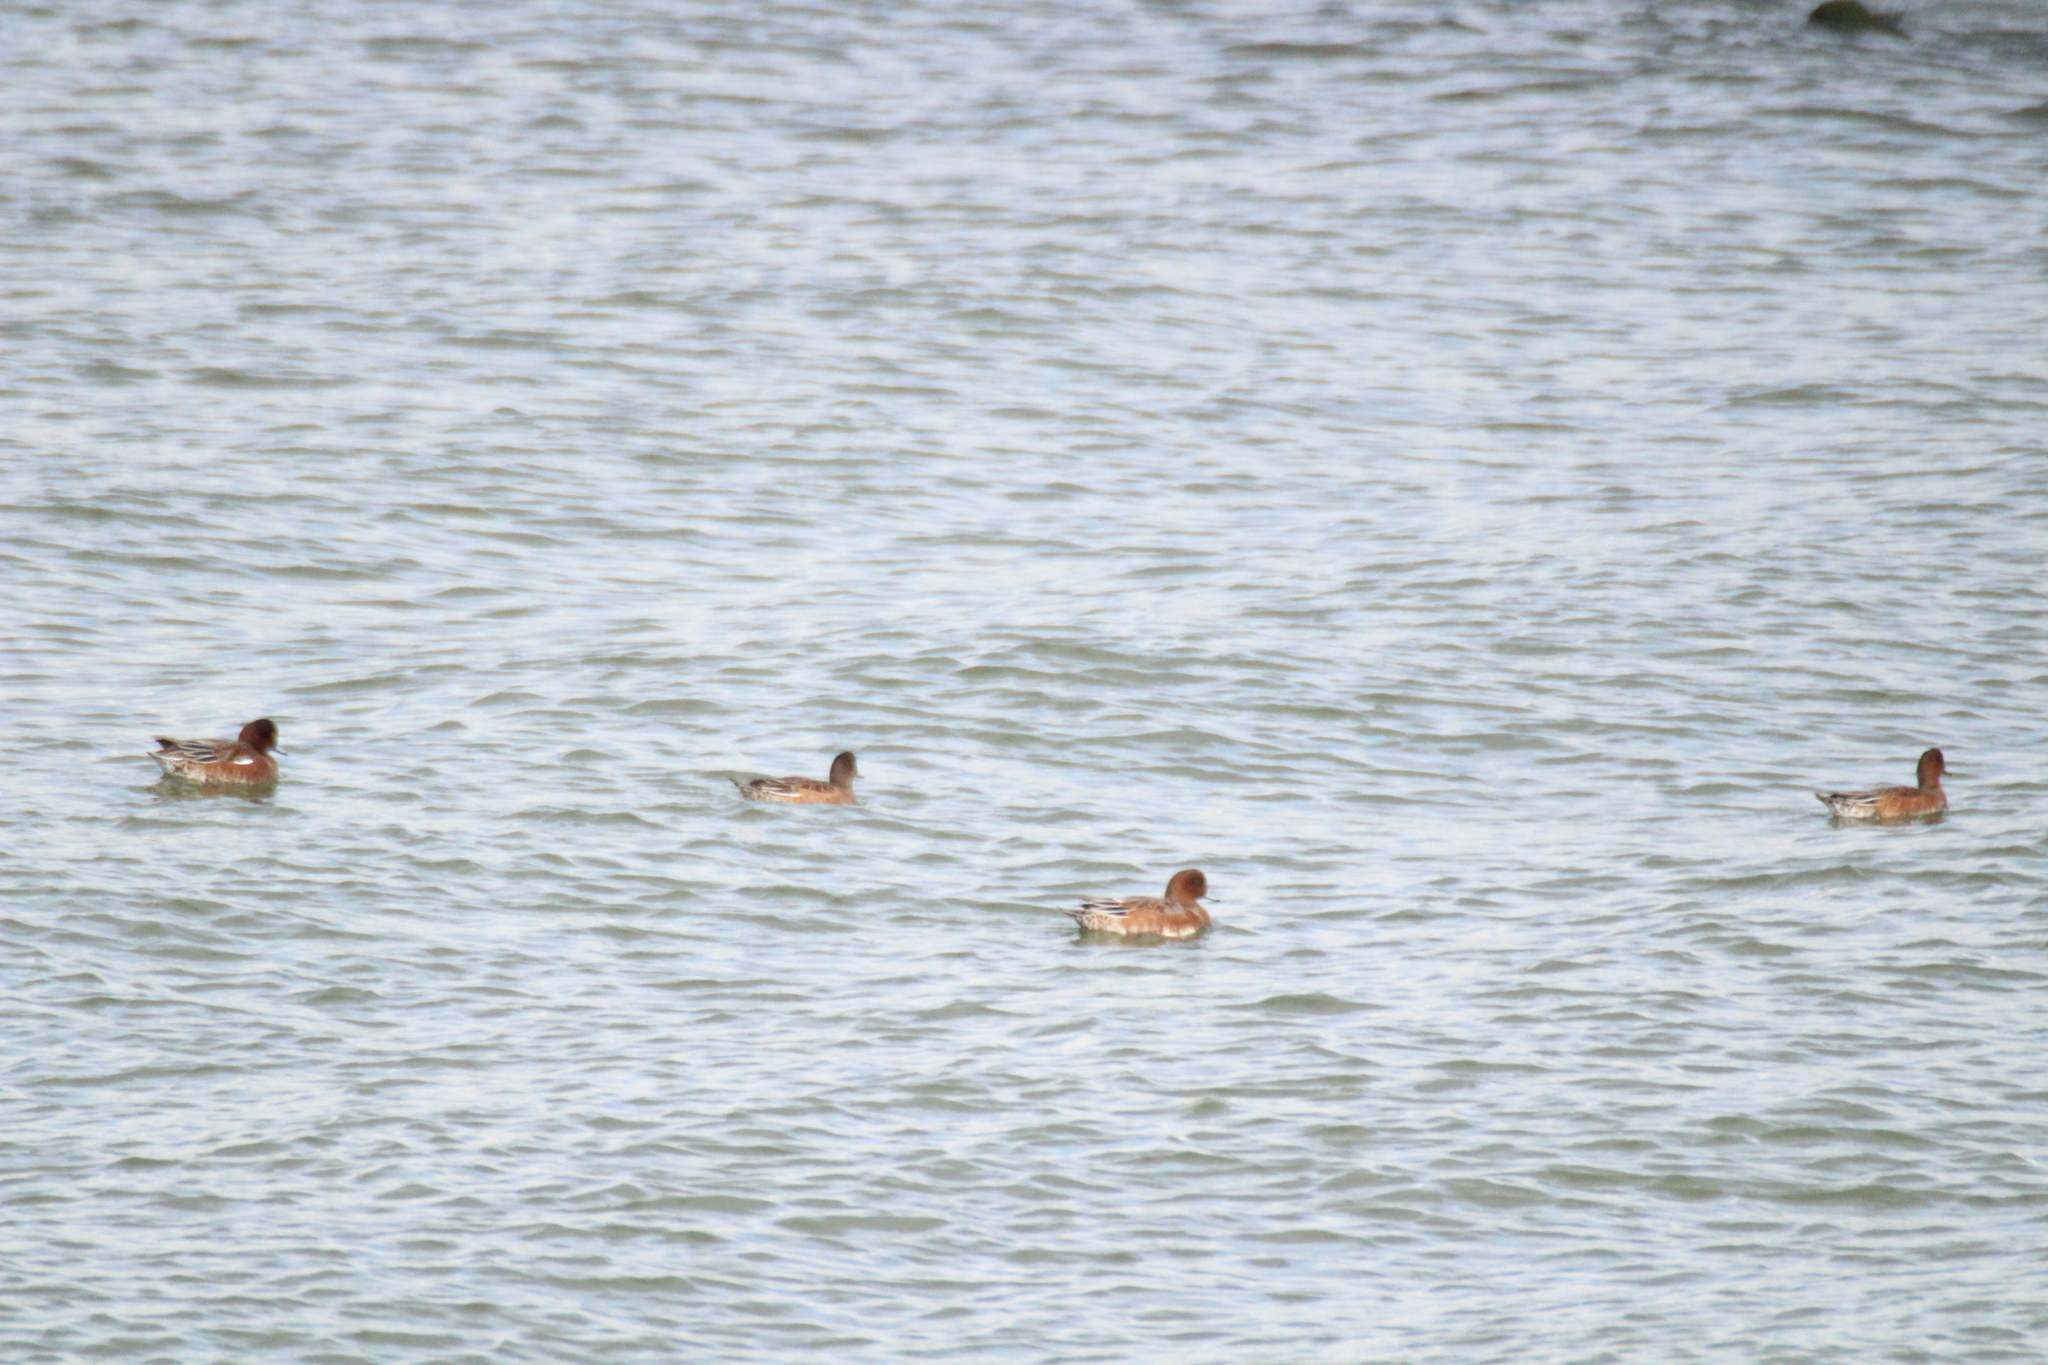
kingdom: Animalia
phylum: Chordata
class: Aves
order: Anseriformes
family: Anatidae
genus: Mareca
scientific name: Mareca penelope
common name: Eurasian wigeon
